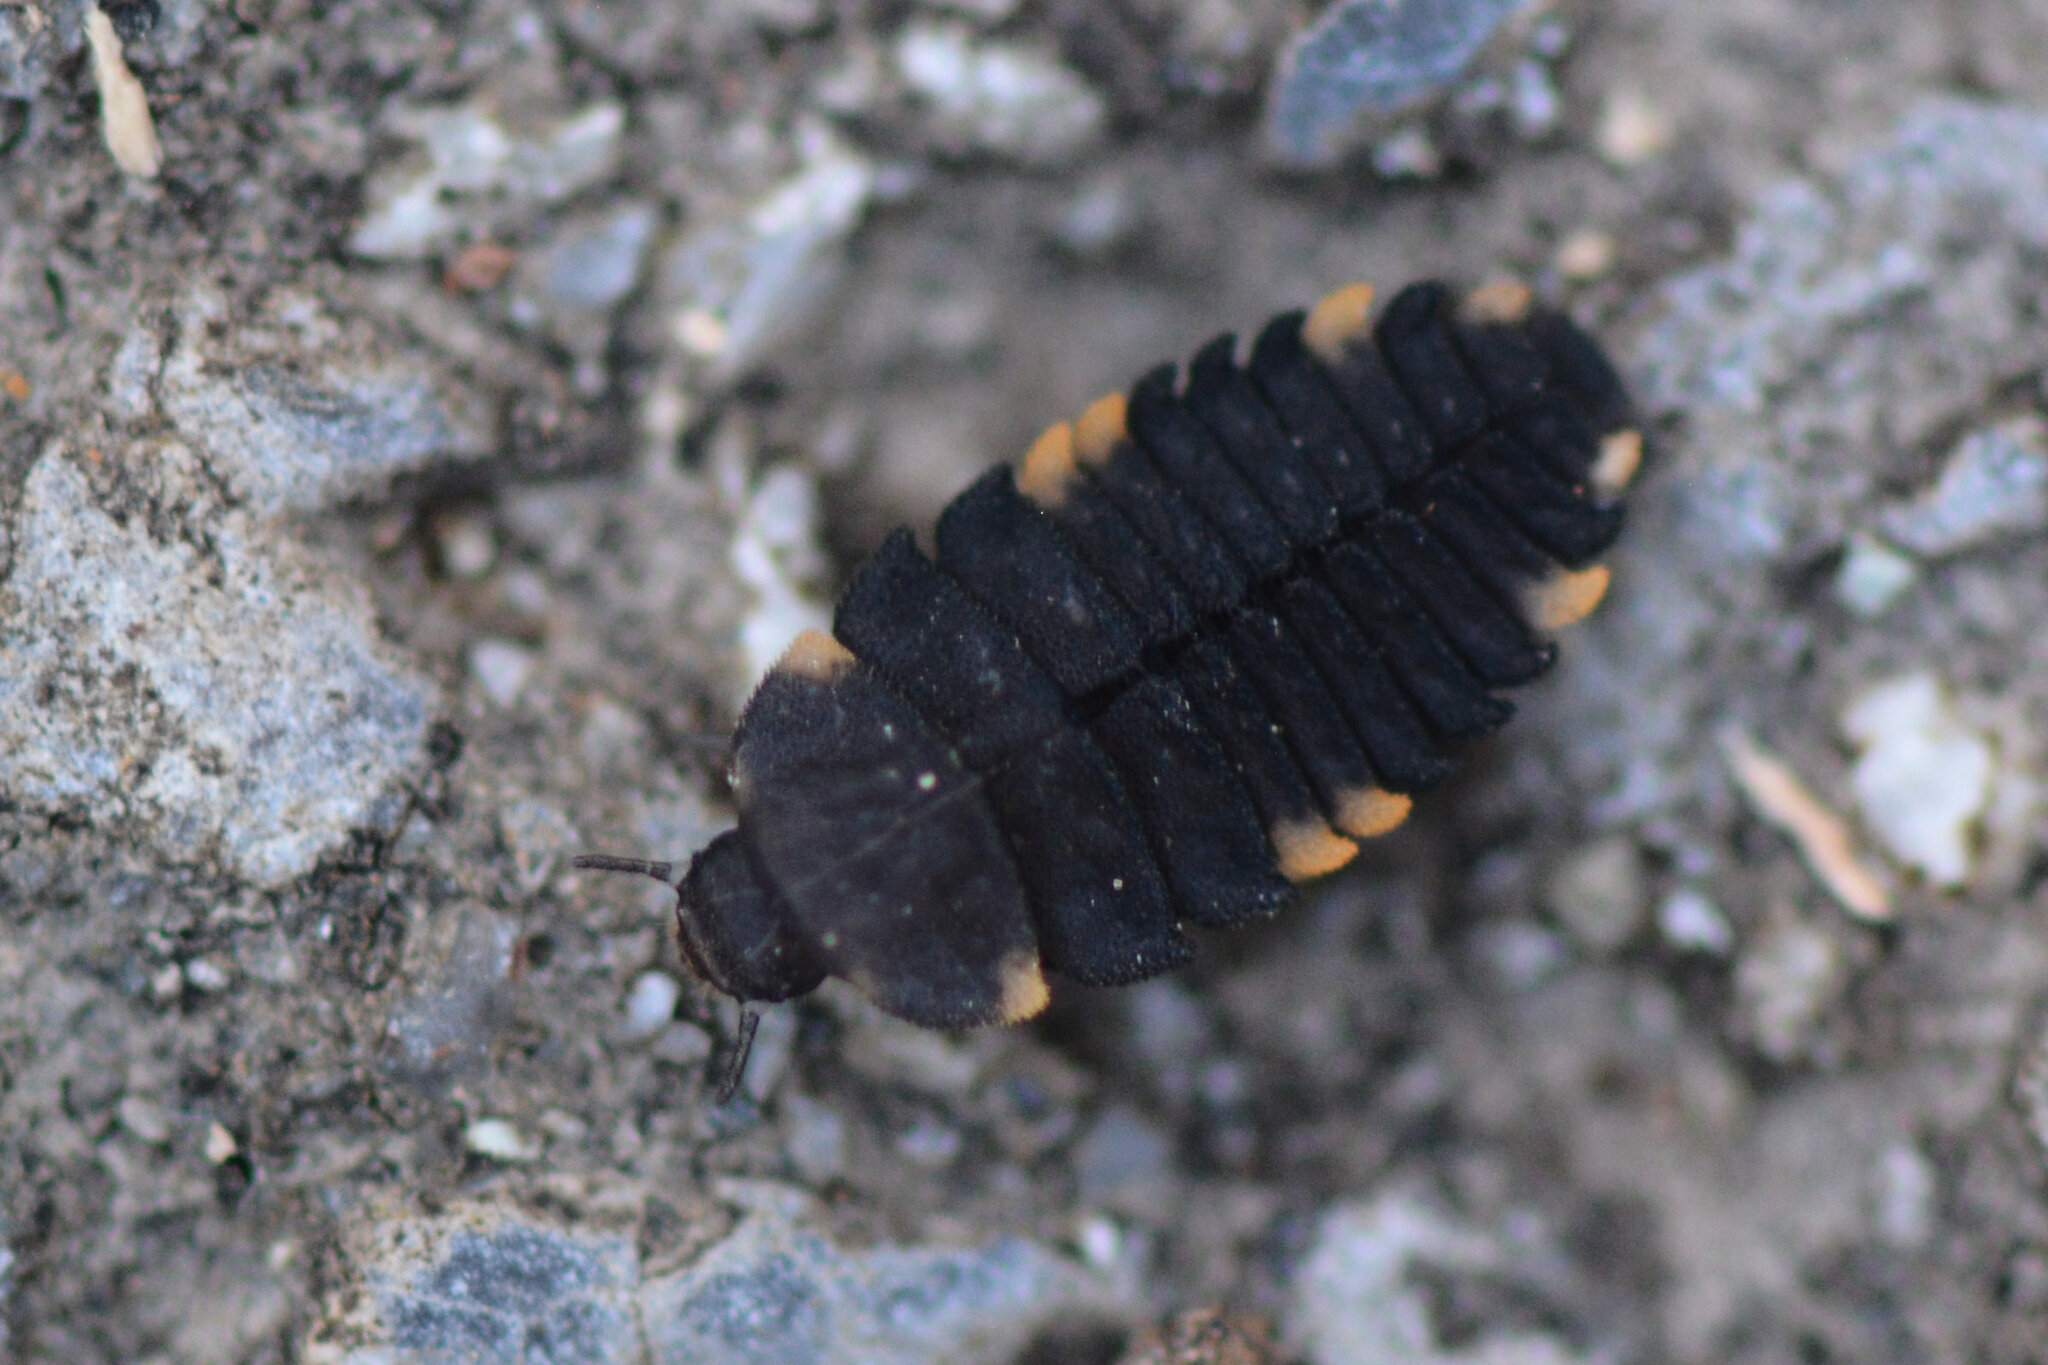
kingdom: Animalia
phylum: Arthropoda
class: Insecta
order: Coleoptera
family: Endomychidae
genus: Endomychus
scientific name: Endomychus coccineus
